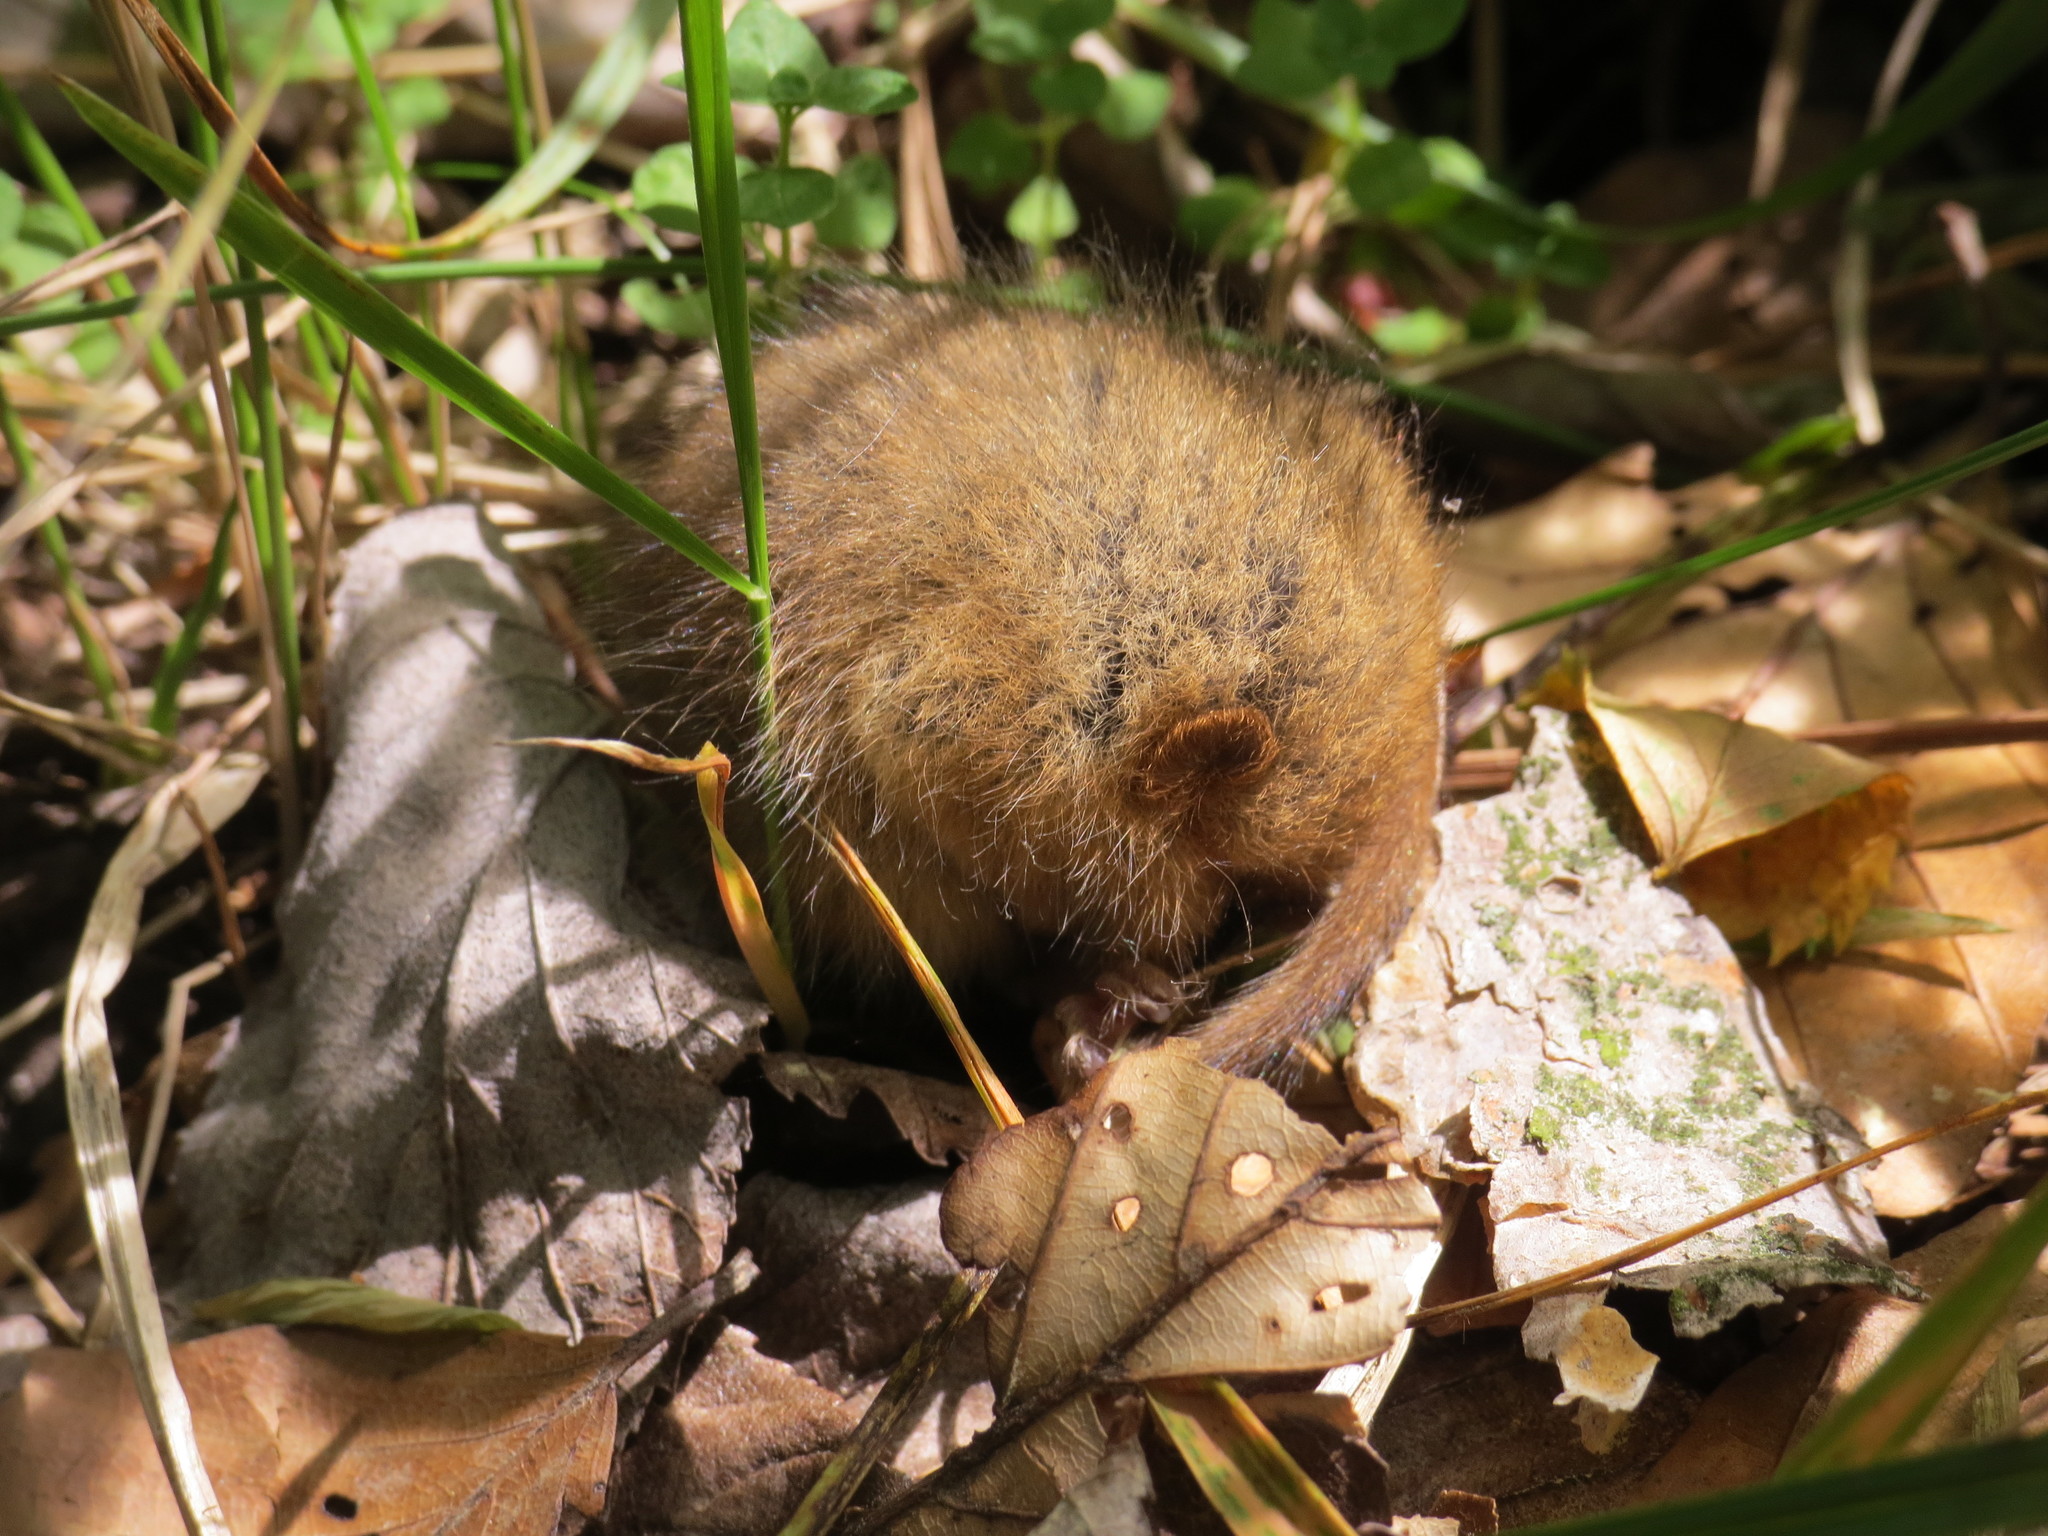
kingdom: Animalia
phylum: Chordata
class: Mammalia
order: Rodentia
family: Gliridae
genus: Muscardinus
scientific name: Muscardinus avellanarius
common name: Hazel dormouse
